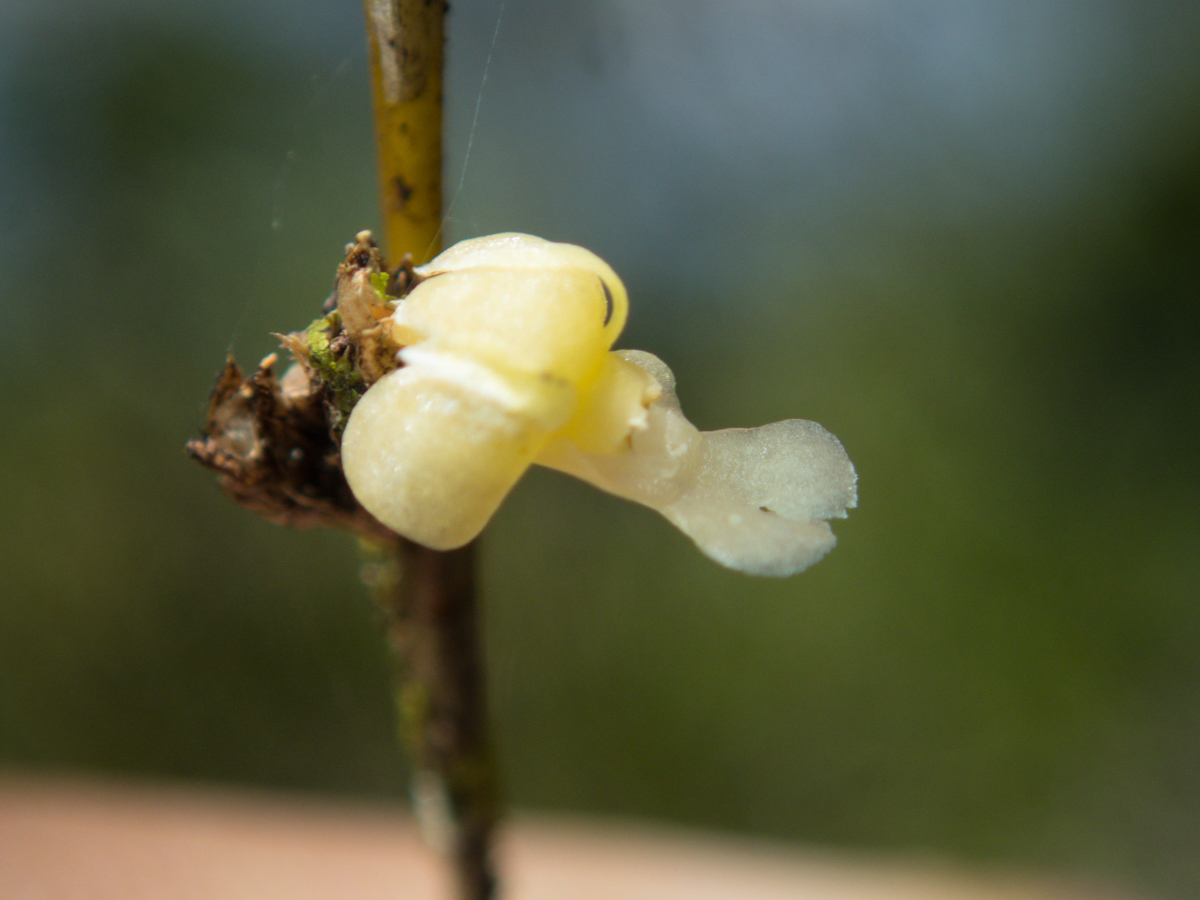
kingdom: Plantae
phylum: Tracheophyta
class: Liliopsida
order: Asparagales
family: Orchidaceae
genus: Dendrobium
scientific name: Dendrobium aloifolium
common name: Aloe-like dendrobium
